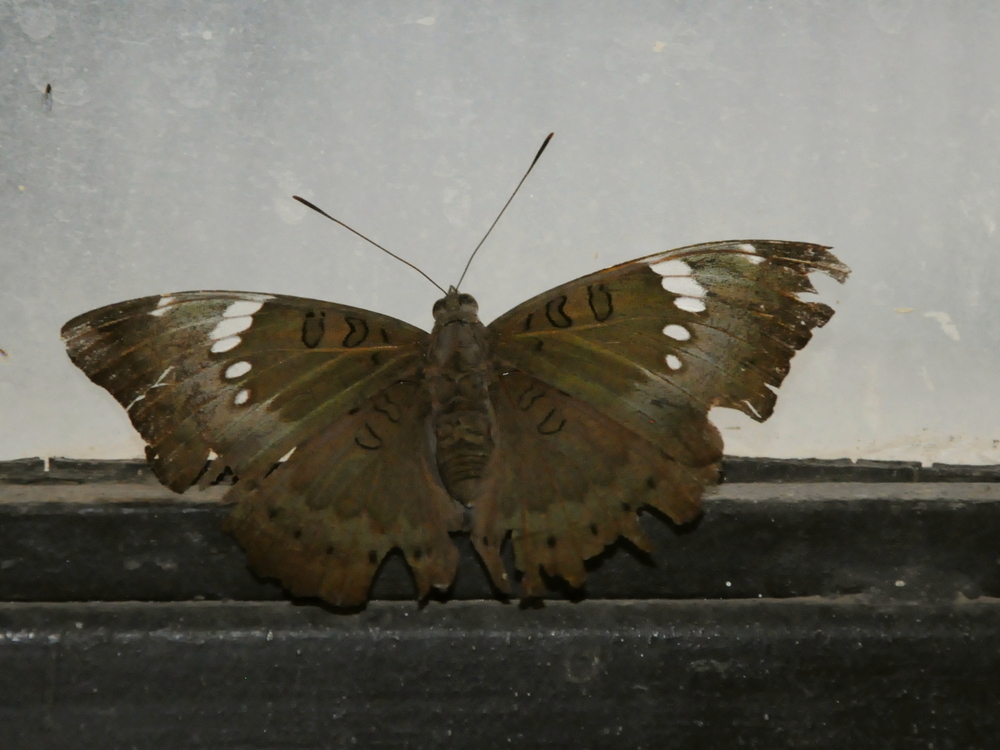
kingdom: Animalia
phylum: Arthropoda
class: Insecta
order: Lepidoptera
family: Nymphalidae
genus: Euthalia
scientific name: Euthalia aconthea
